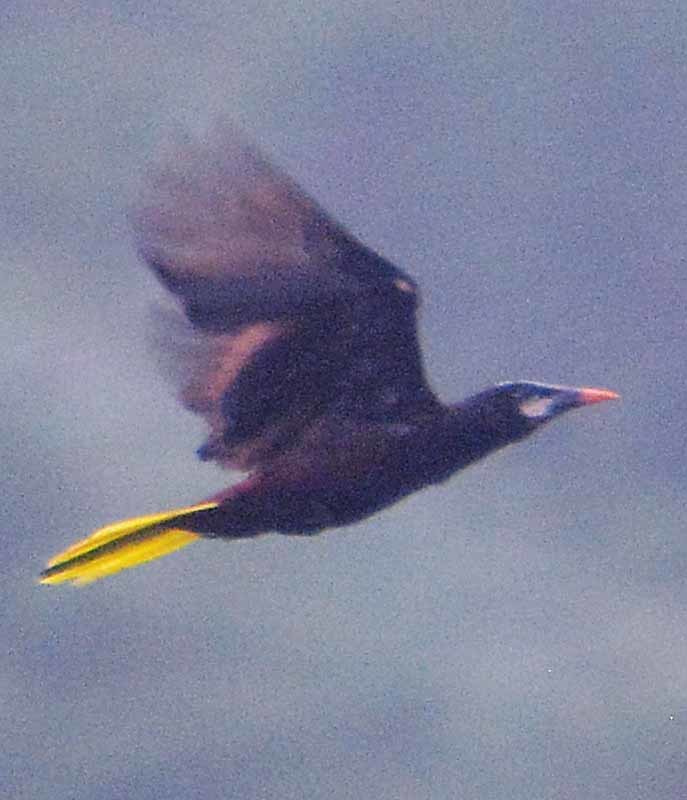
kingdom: Animalia
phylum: Chordata
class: Aves
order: Passeriformes
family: Icteridae
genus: Psarocolius
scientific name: Psarocolius montezuma
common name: Montezuma oropendola
